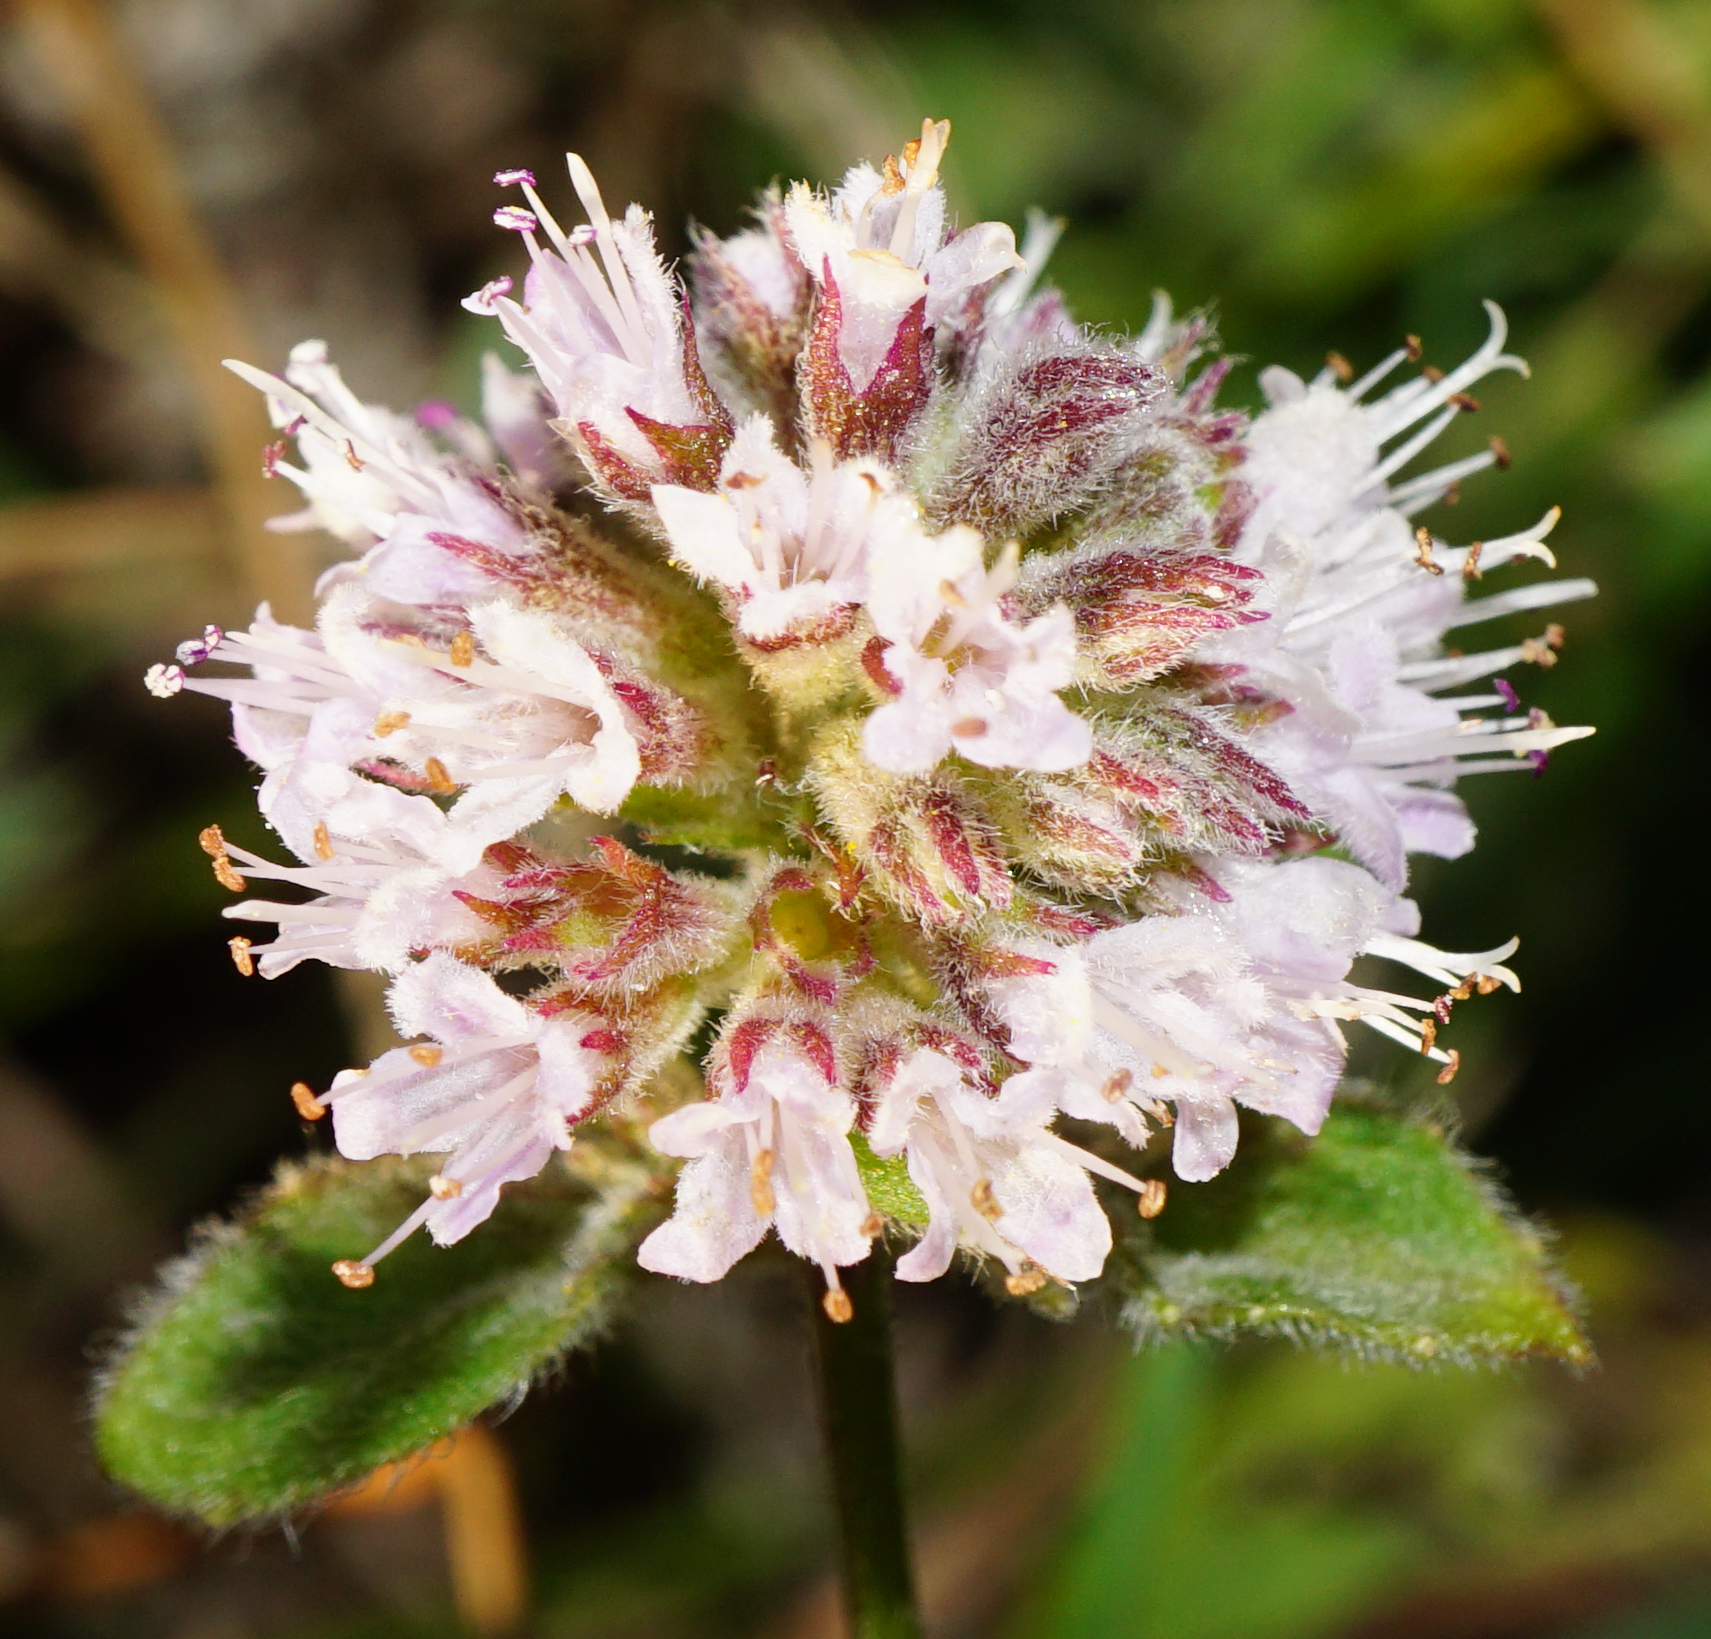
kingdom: Plantae
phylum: Tracheophyta
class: Magnoliopsida
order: Lamiales
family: Lamiaceae
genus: Mentha
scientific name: Mentha aquatica
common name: Water mint
